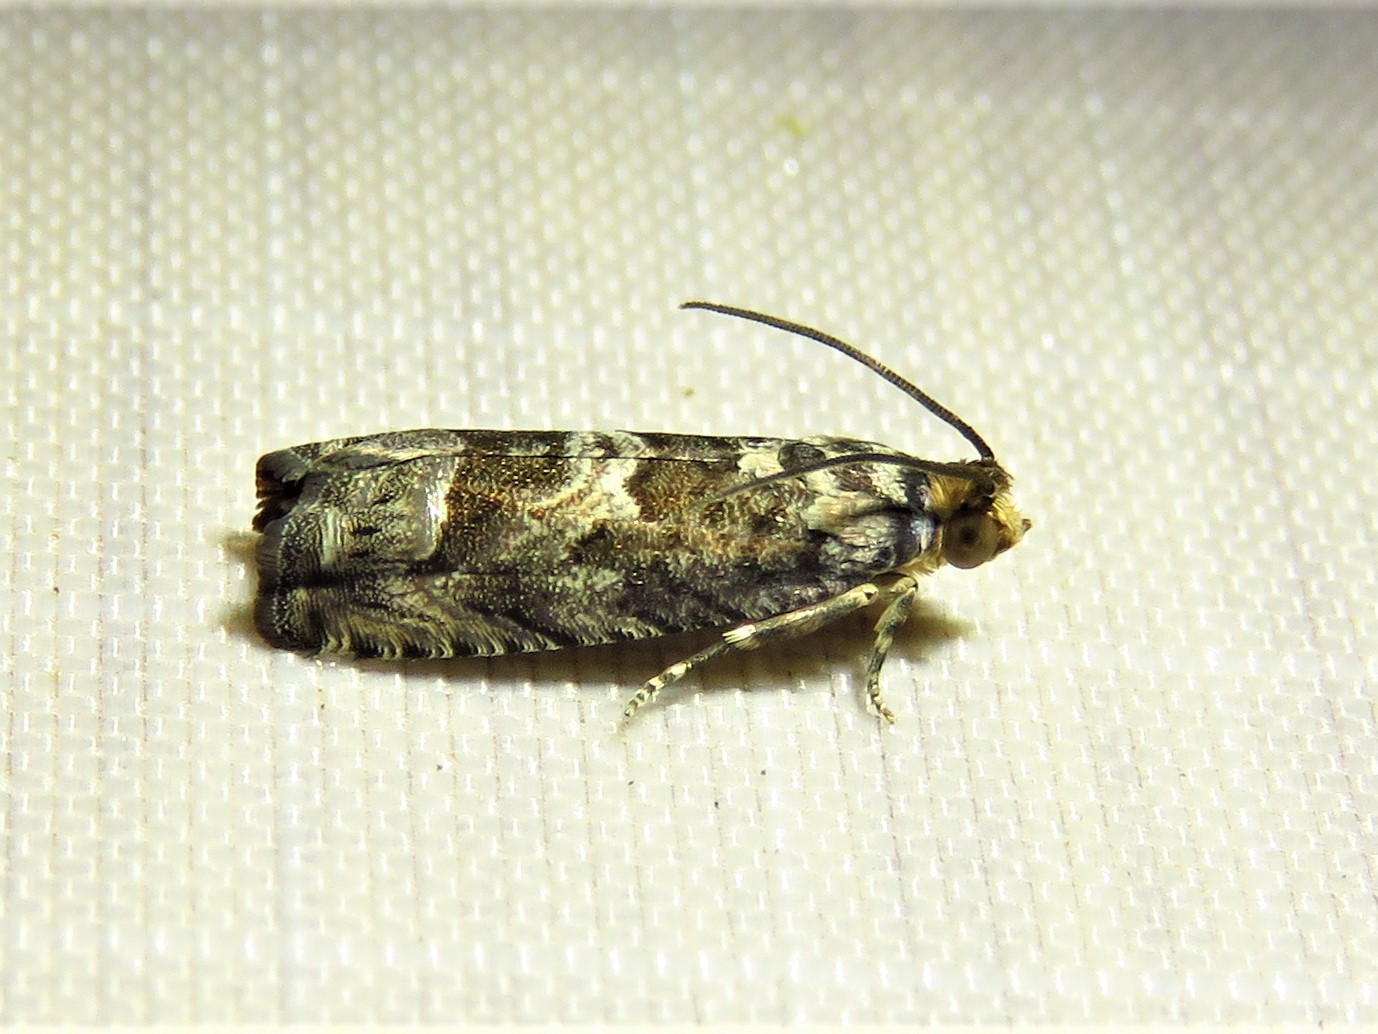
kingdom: Animalia
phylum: Arthropoda
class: Insecta
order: Lepidoptera
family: Tortricidae
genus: Cydia
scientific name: Cydia membrosa
